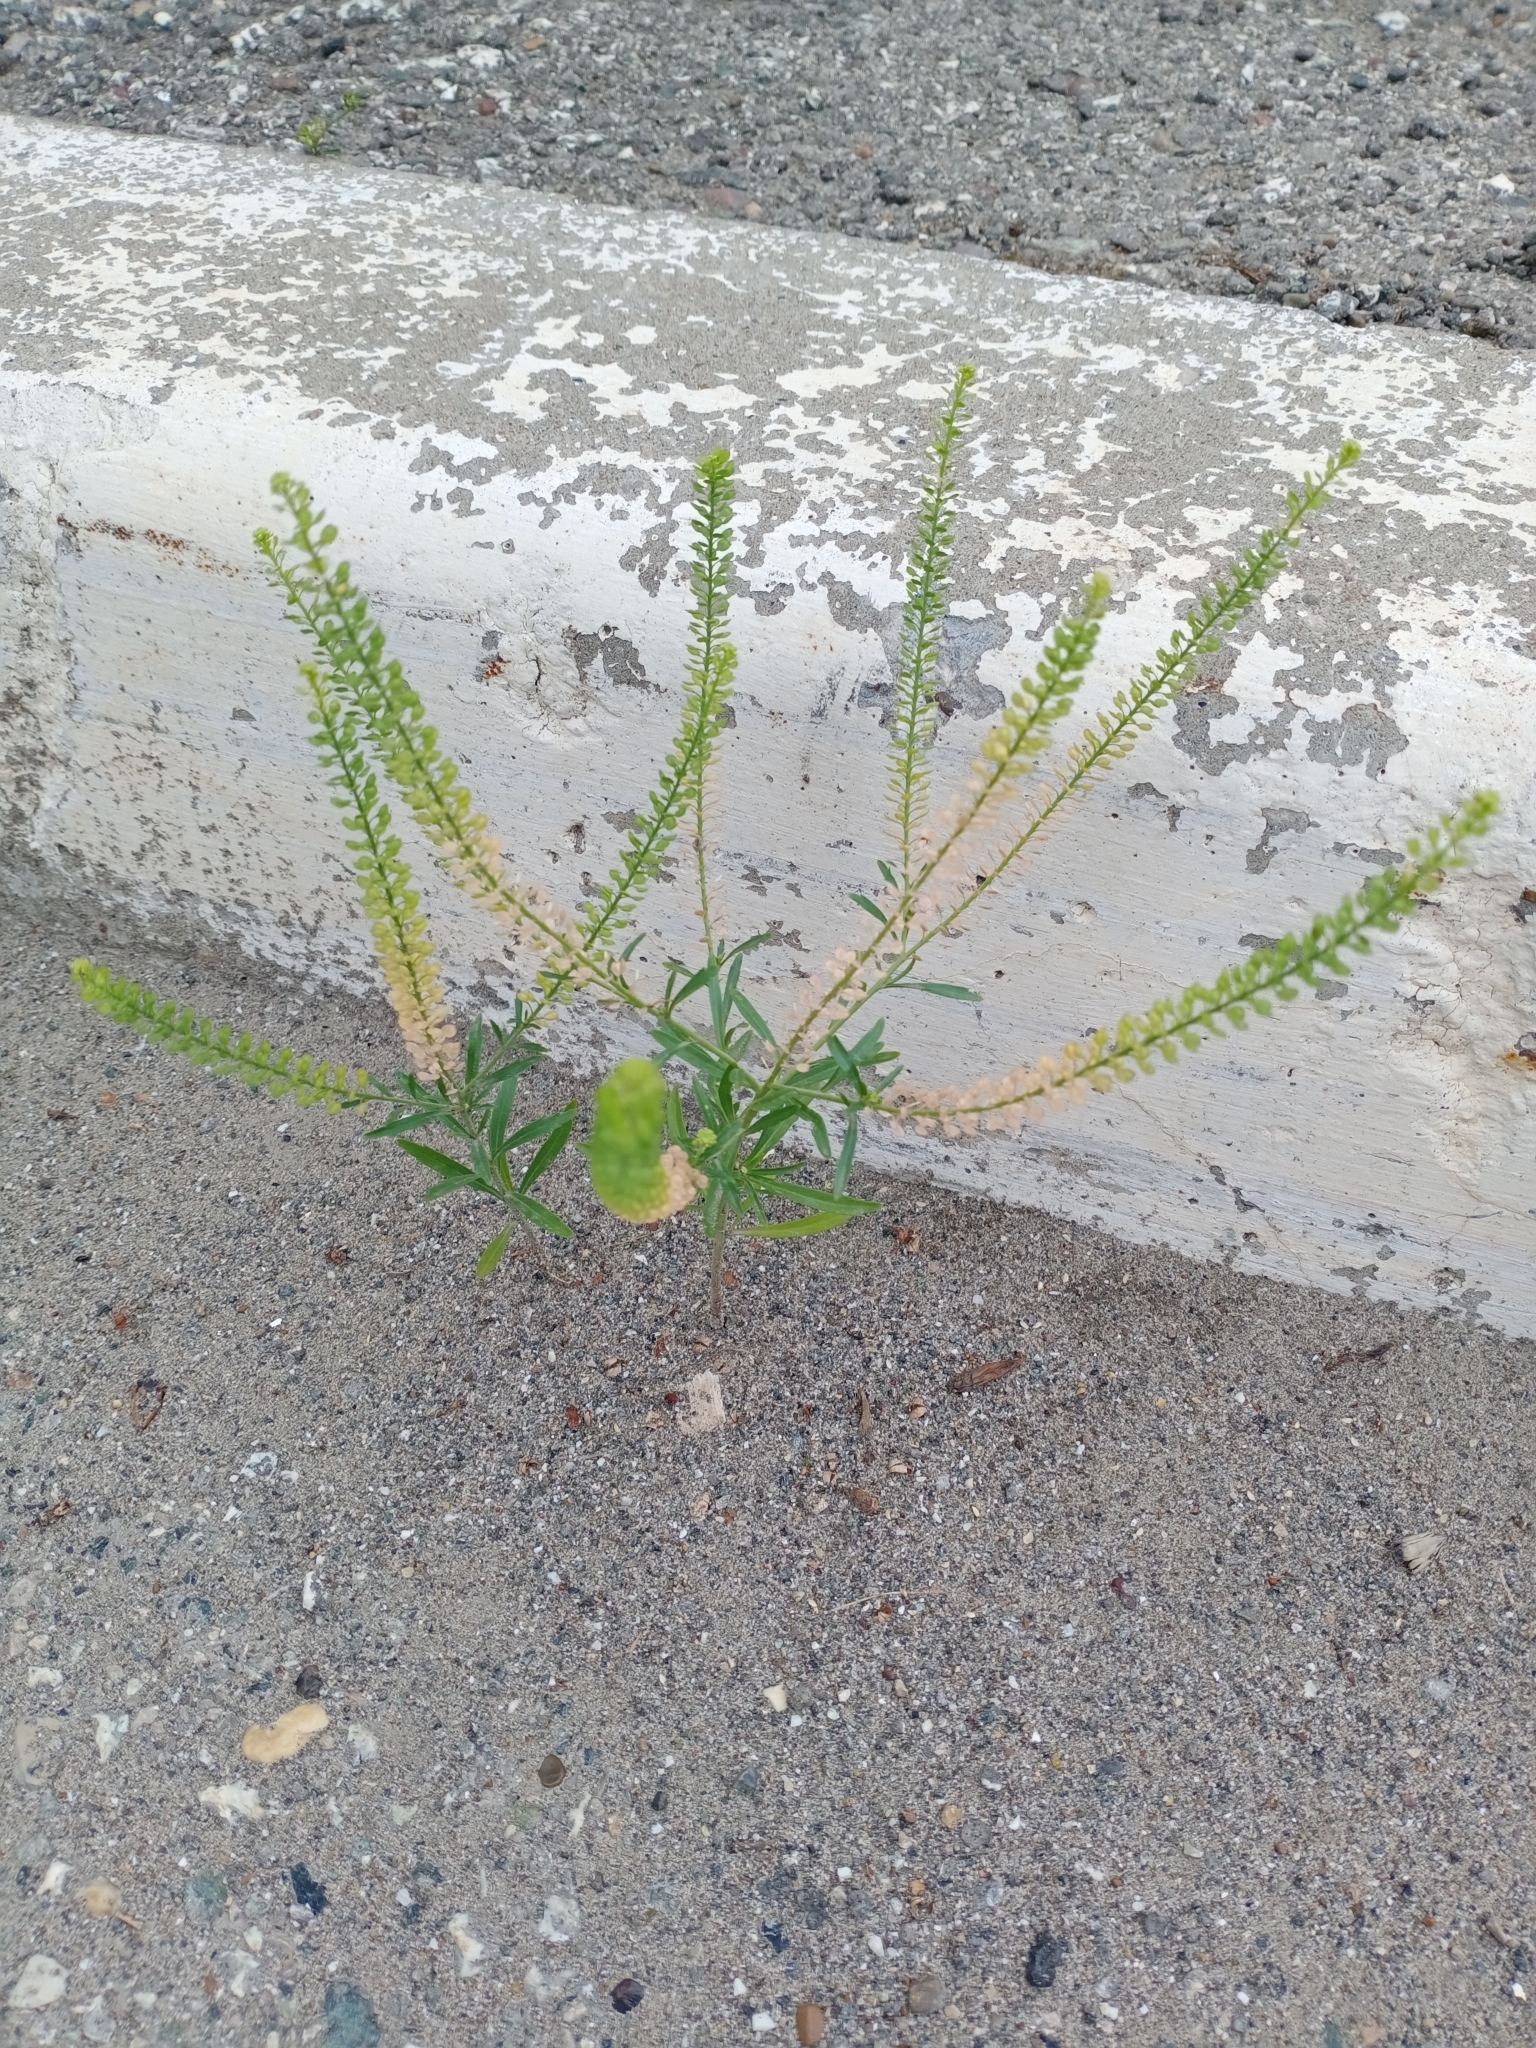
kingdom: Plantae
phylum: Tracheophyta
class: Magnoliopsida
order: Brassicales
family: Brassicaceae
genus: Lepidium
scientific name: Lepidium densiflorum
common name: Miner's pepperwort
